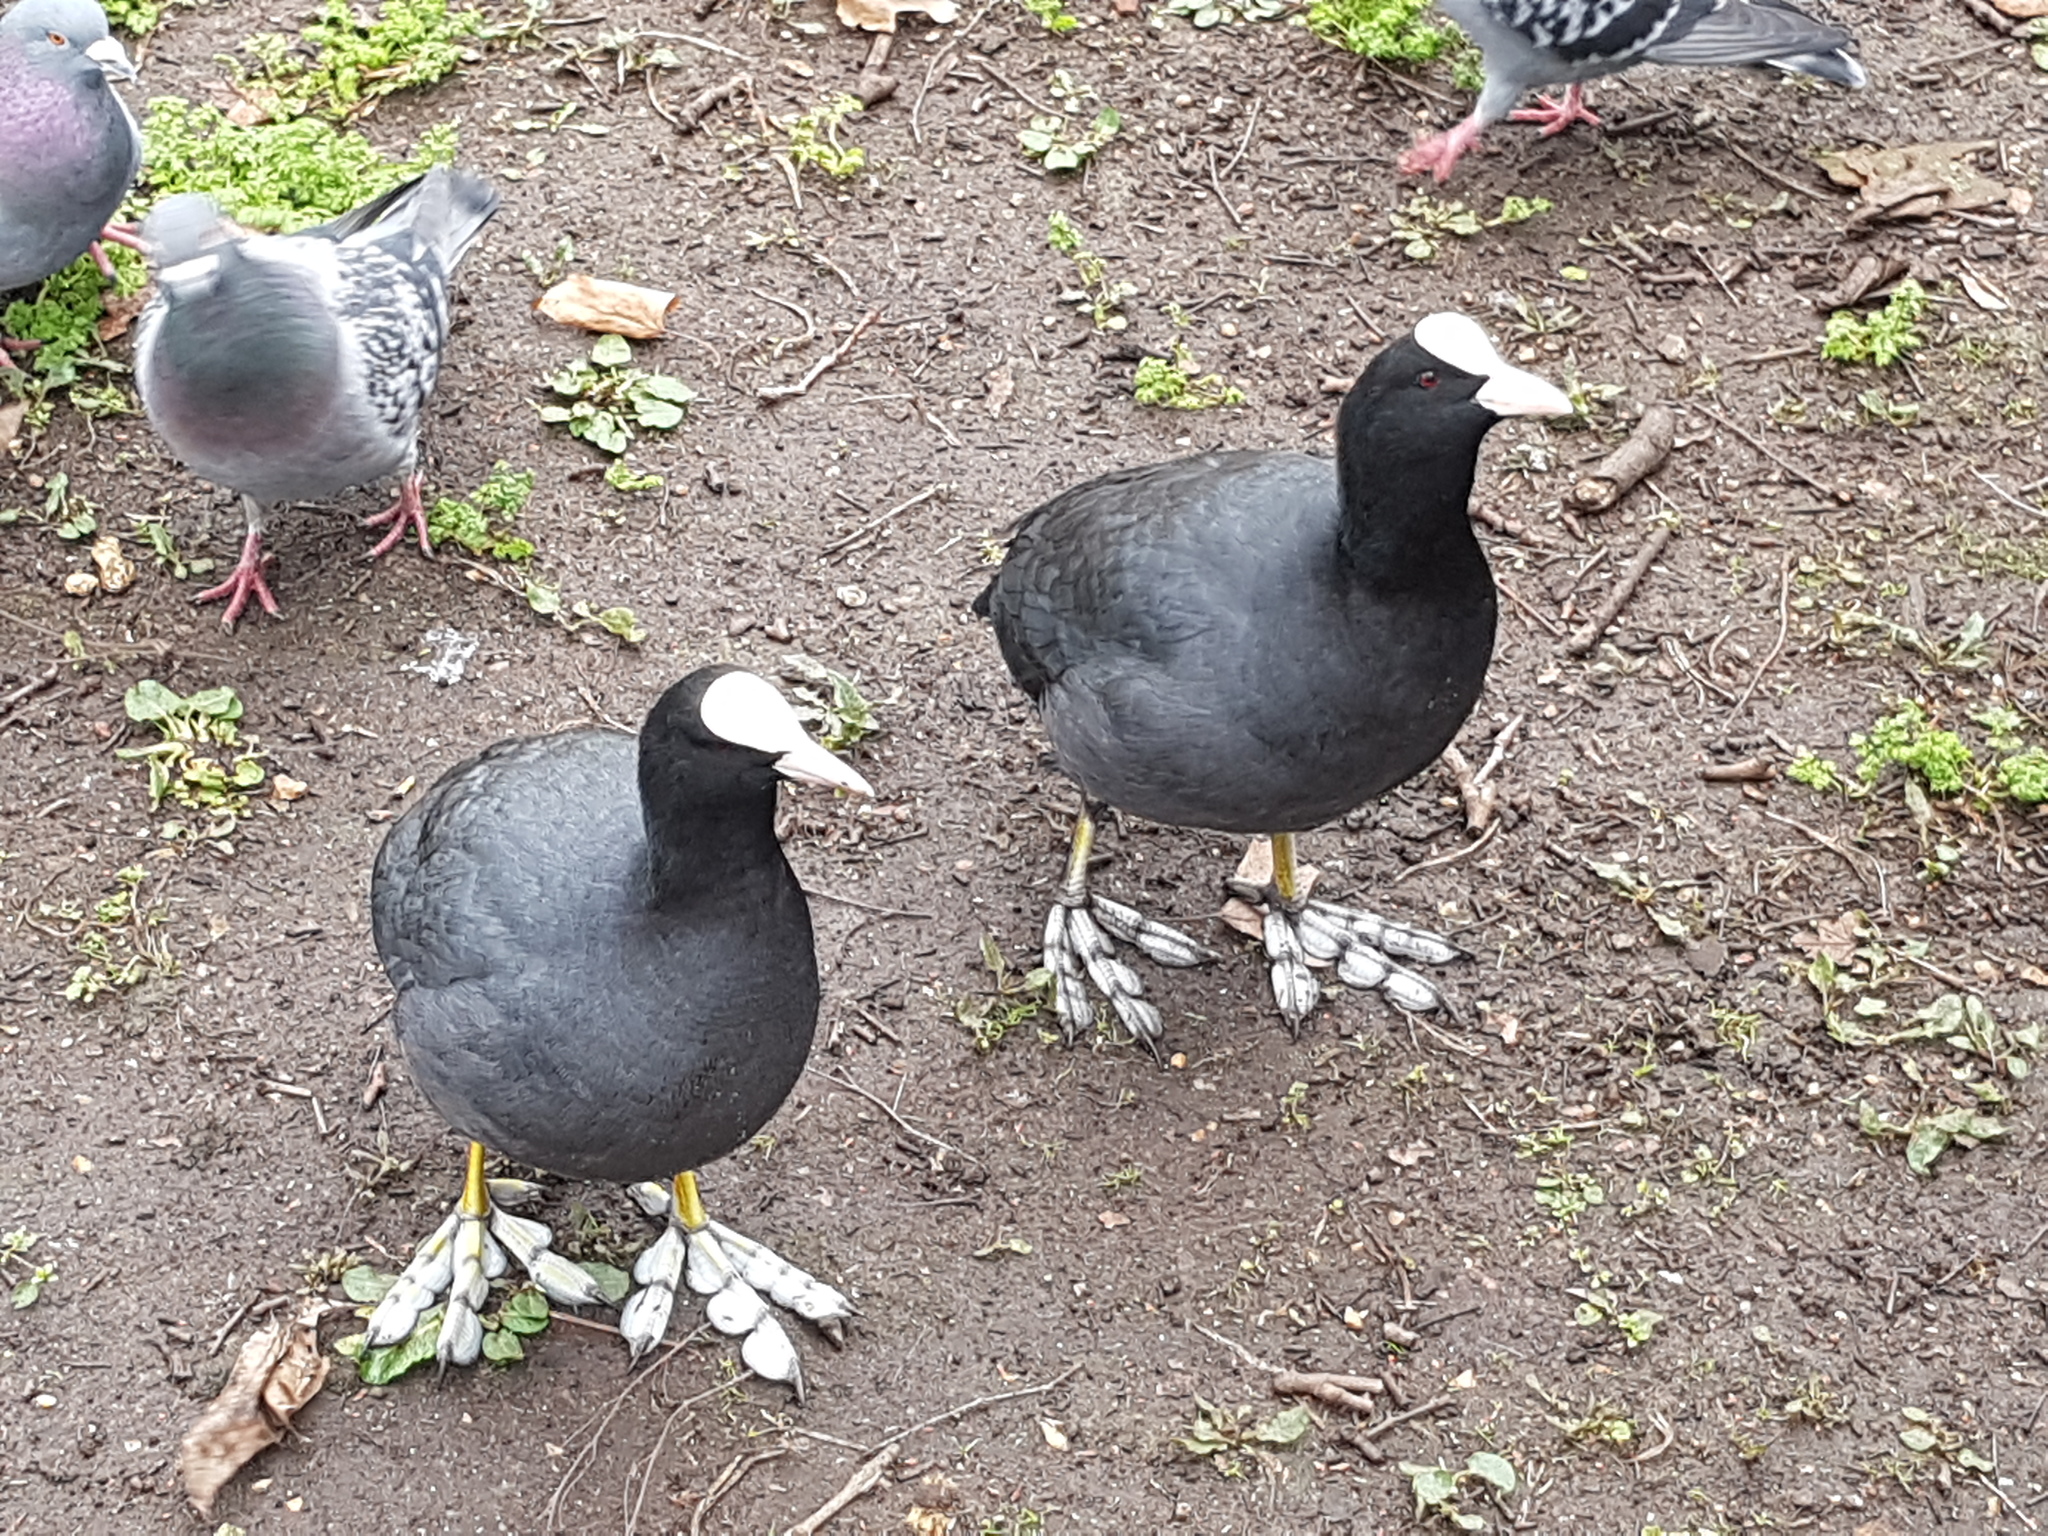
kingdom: Animalia
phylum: Chordata
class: Aves
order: Gruiformes
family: Rallidae
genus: Fulica
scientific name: Fulica atra
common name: Eurasian coot
